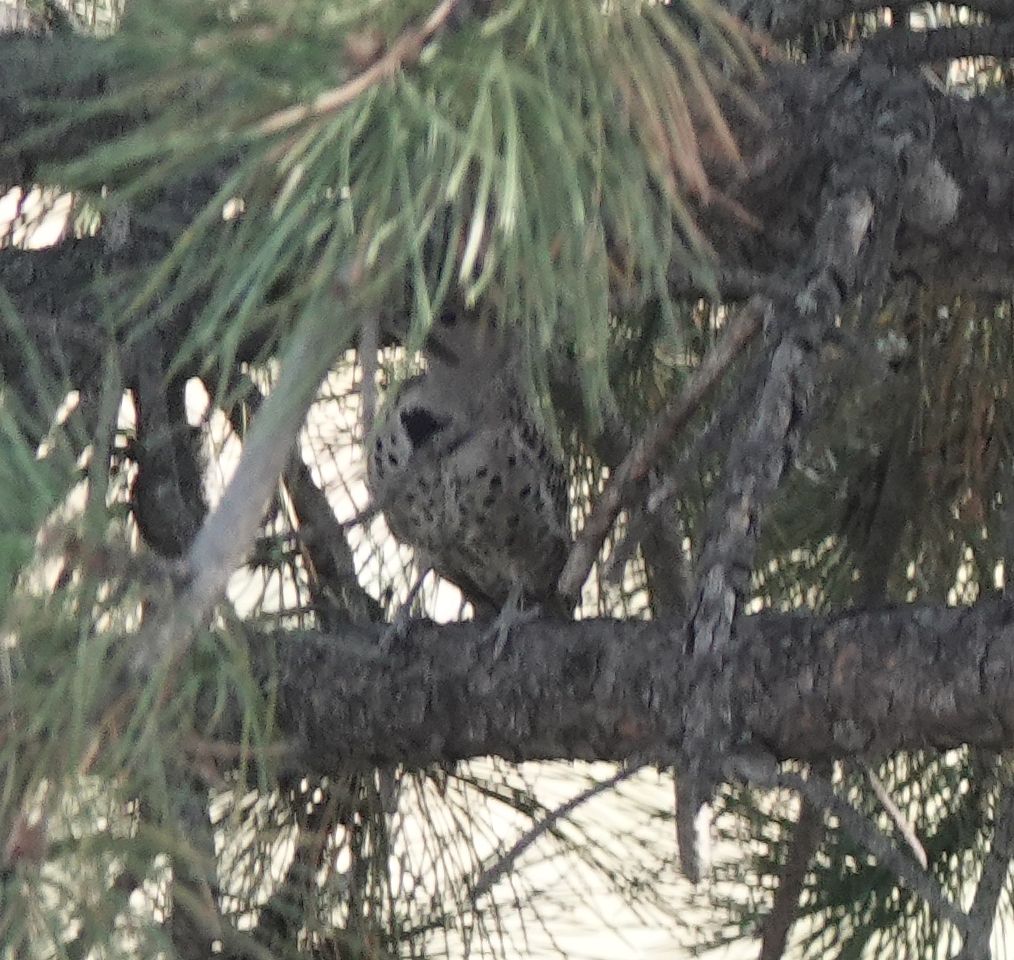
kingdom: Animalia
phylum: Chordata
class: Aves
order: Piciformes
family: Picidae
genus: Colaptes
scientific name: Colaptes auratus
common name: Northern flicker
